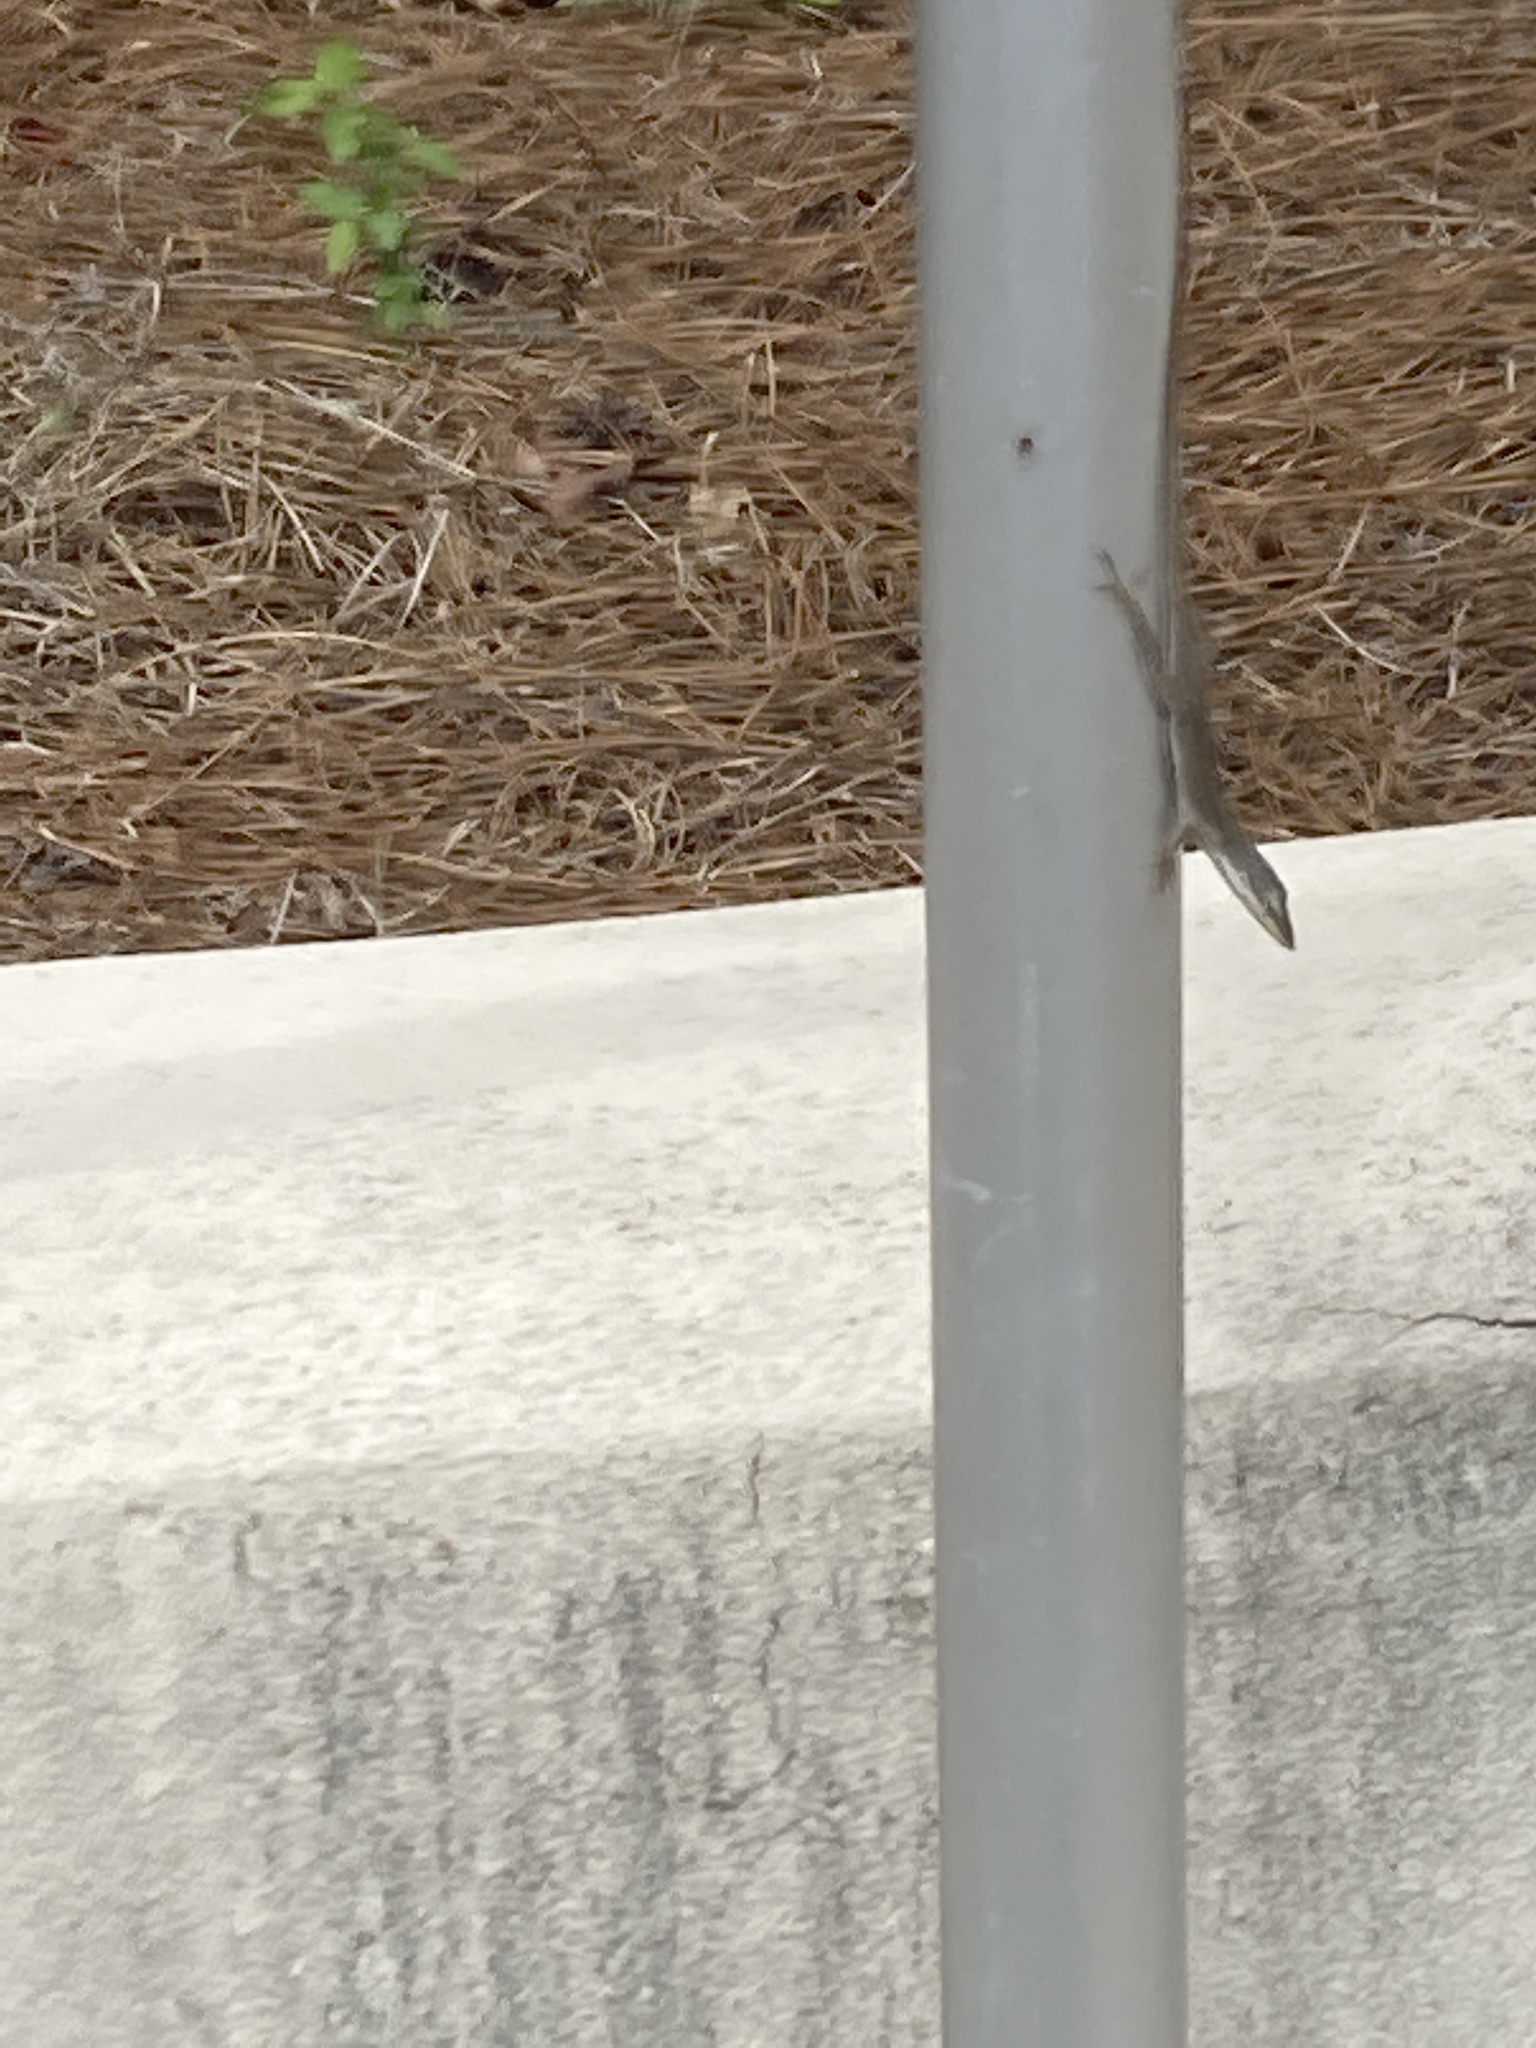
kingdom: Animalia
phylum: Chordata
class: Squamata
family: Dactyloidae
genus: Anolis
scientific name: Anolis carolinensis
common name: Green anole
